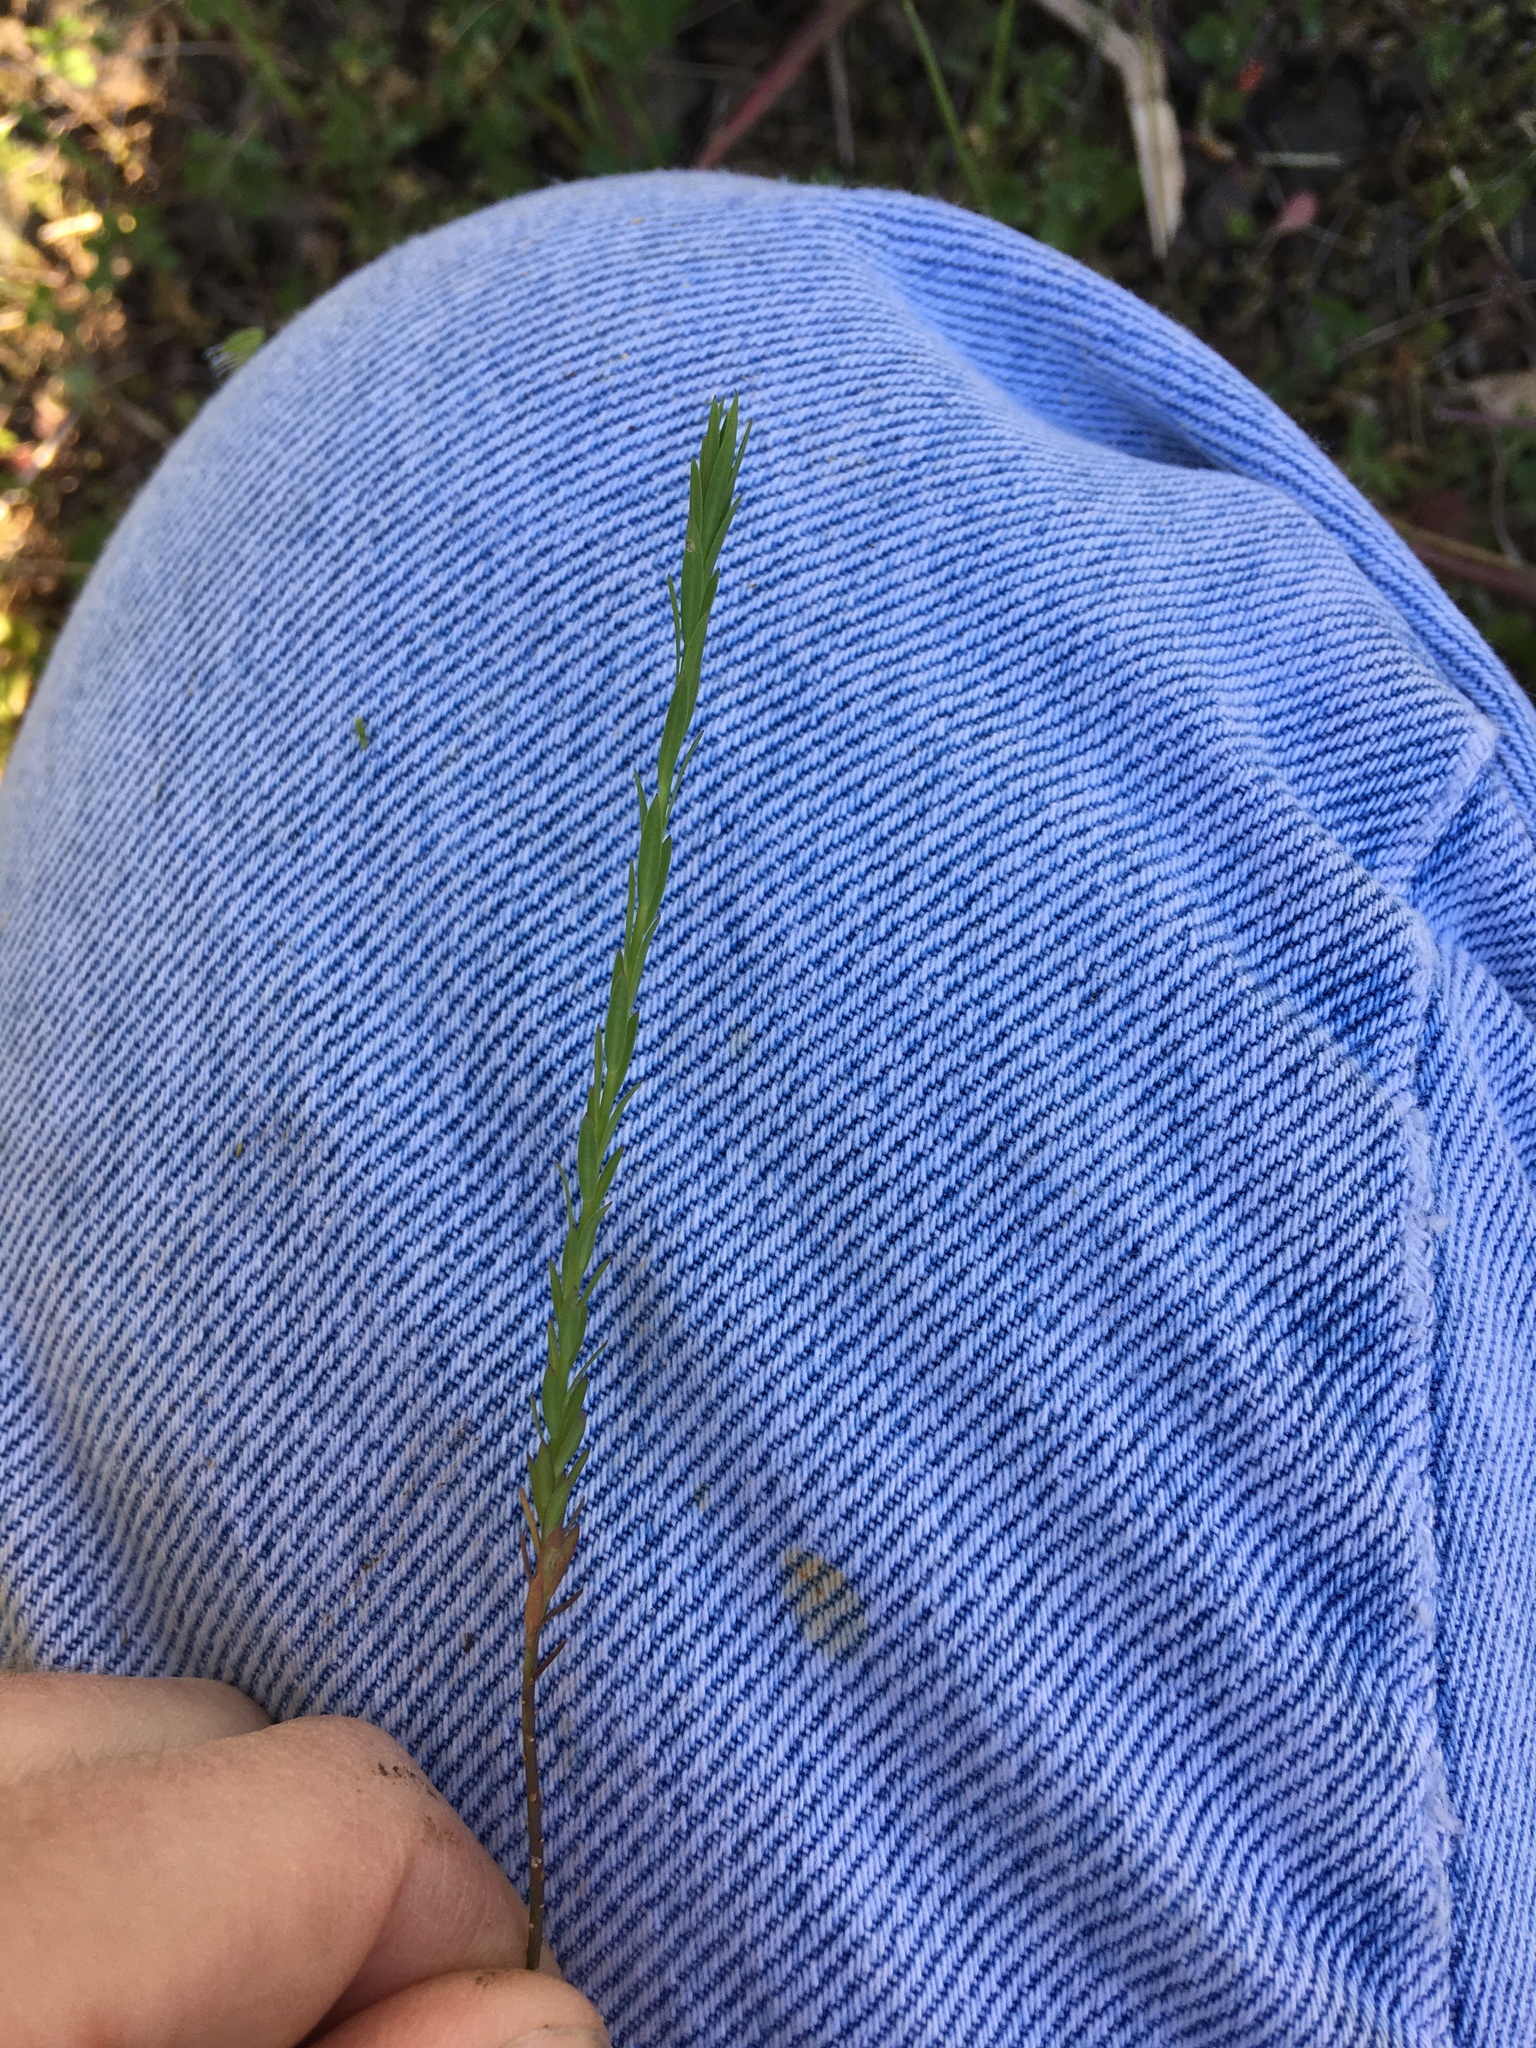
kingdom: Plantae
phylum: Tracheophyta
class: Magnoliopsida
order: Malpighiales
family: Linaceae
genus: Linum
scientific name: Linum bienne
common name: Pale flax
